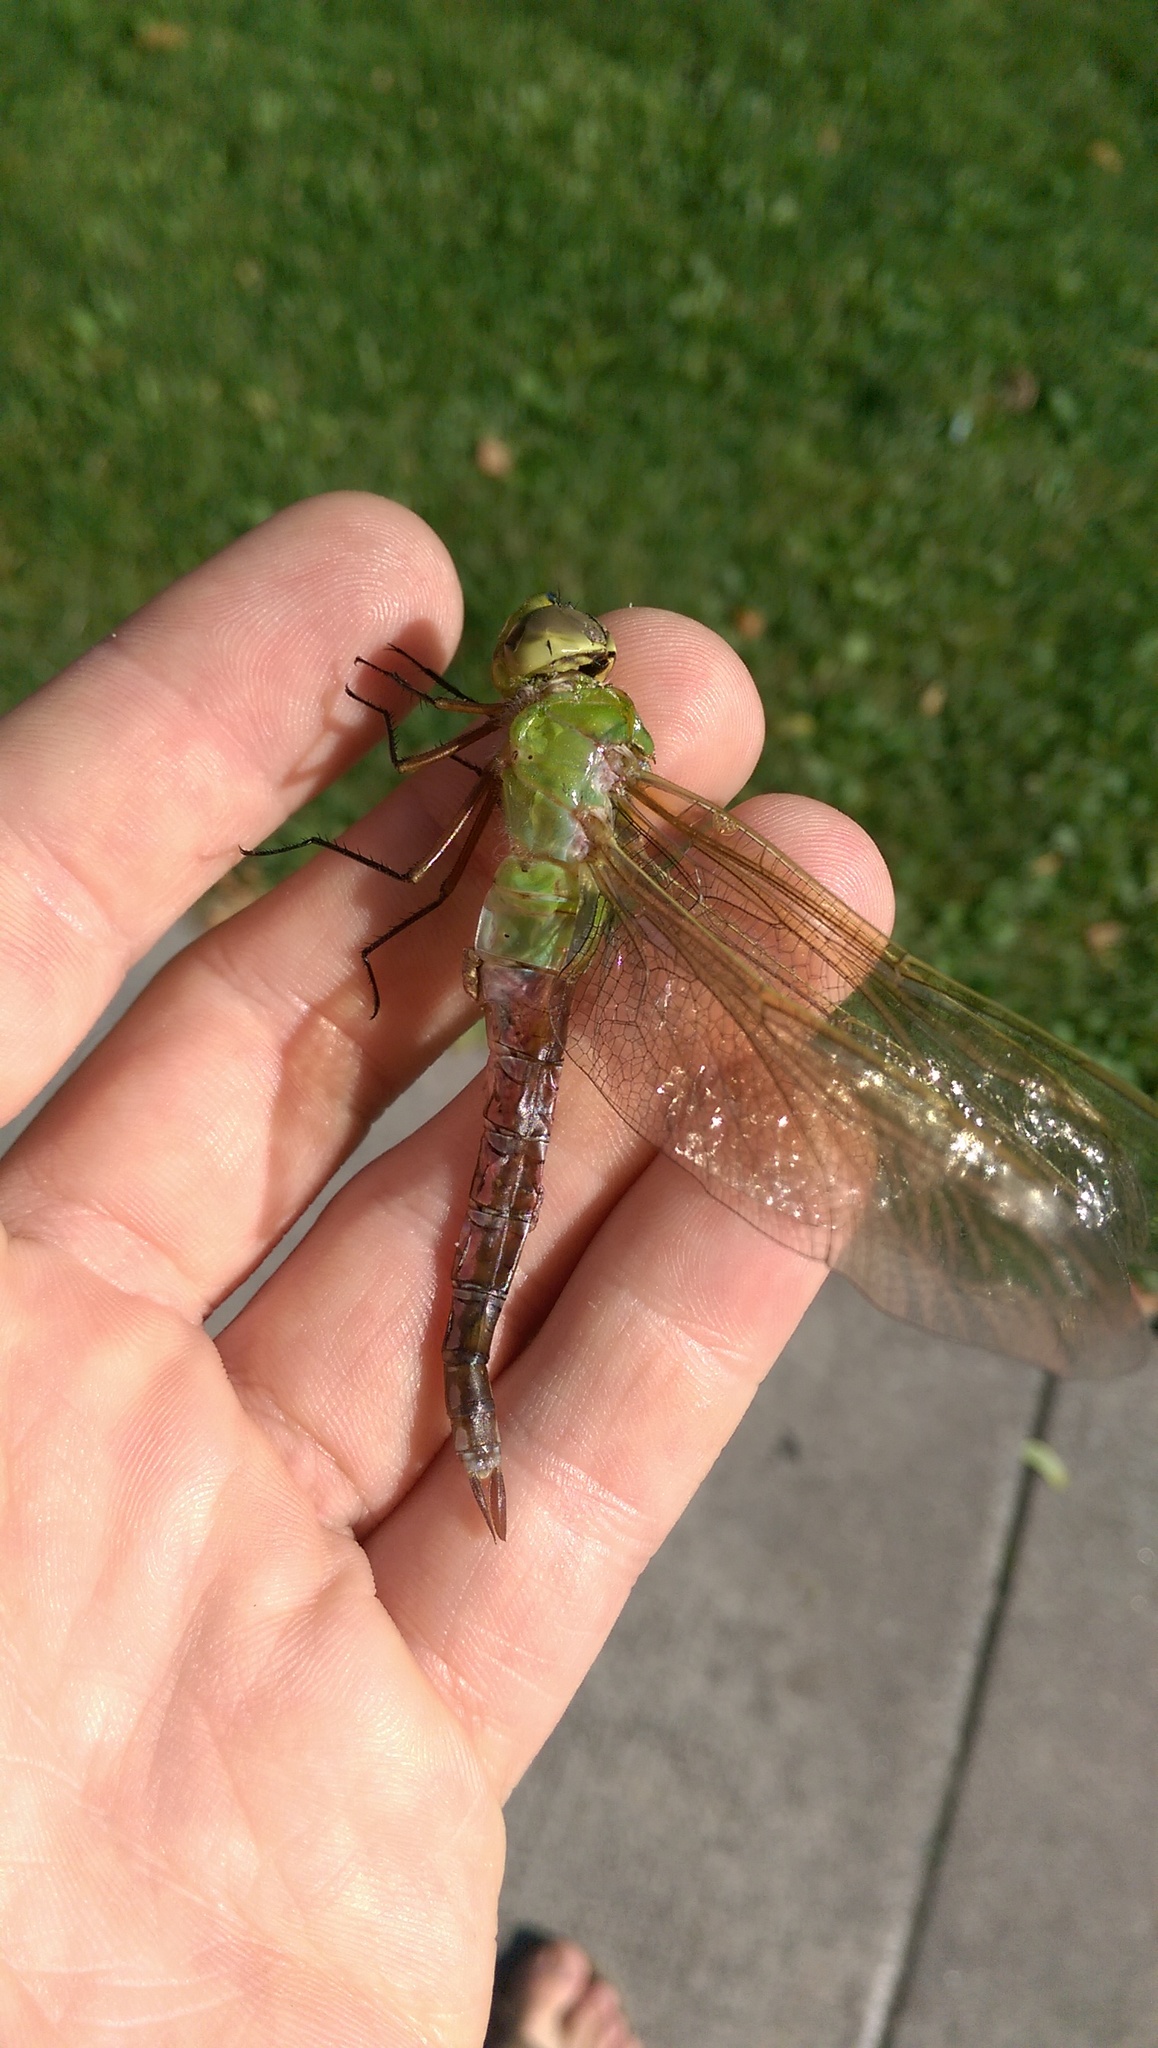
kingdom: Animalia
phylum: Arthropoda
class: Insecta
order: Odonata
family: Aeshnidae
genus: Anax
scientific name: Anax junius
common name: Common green darner
